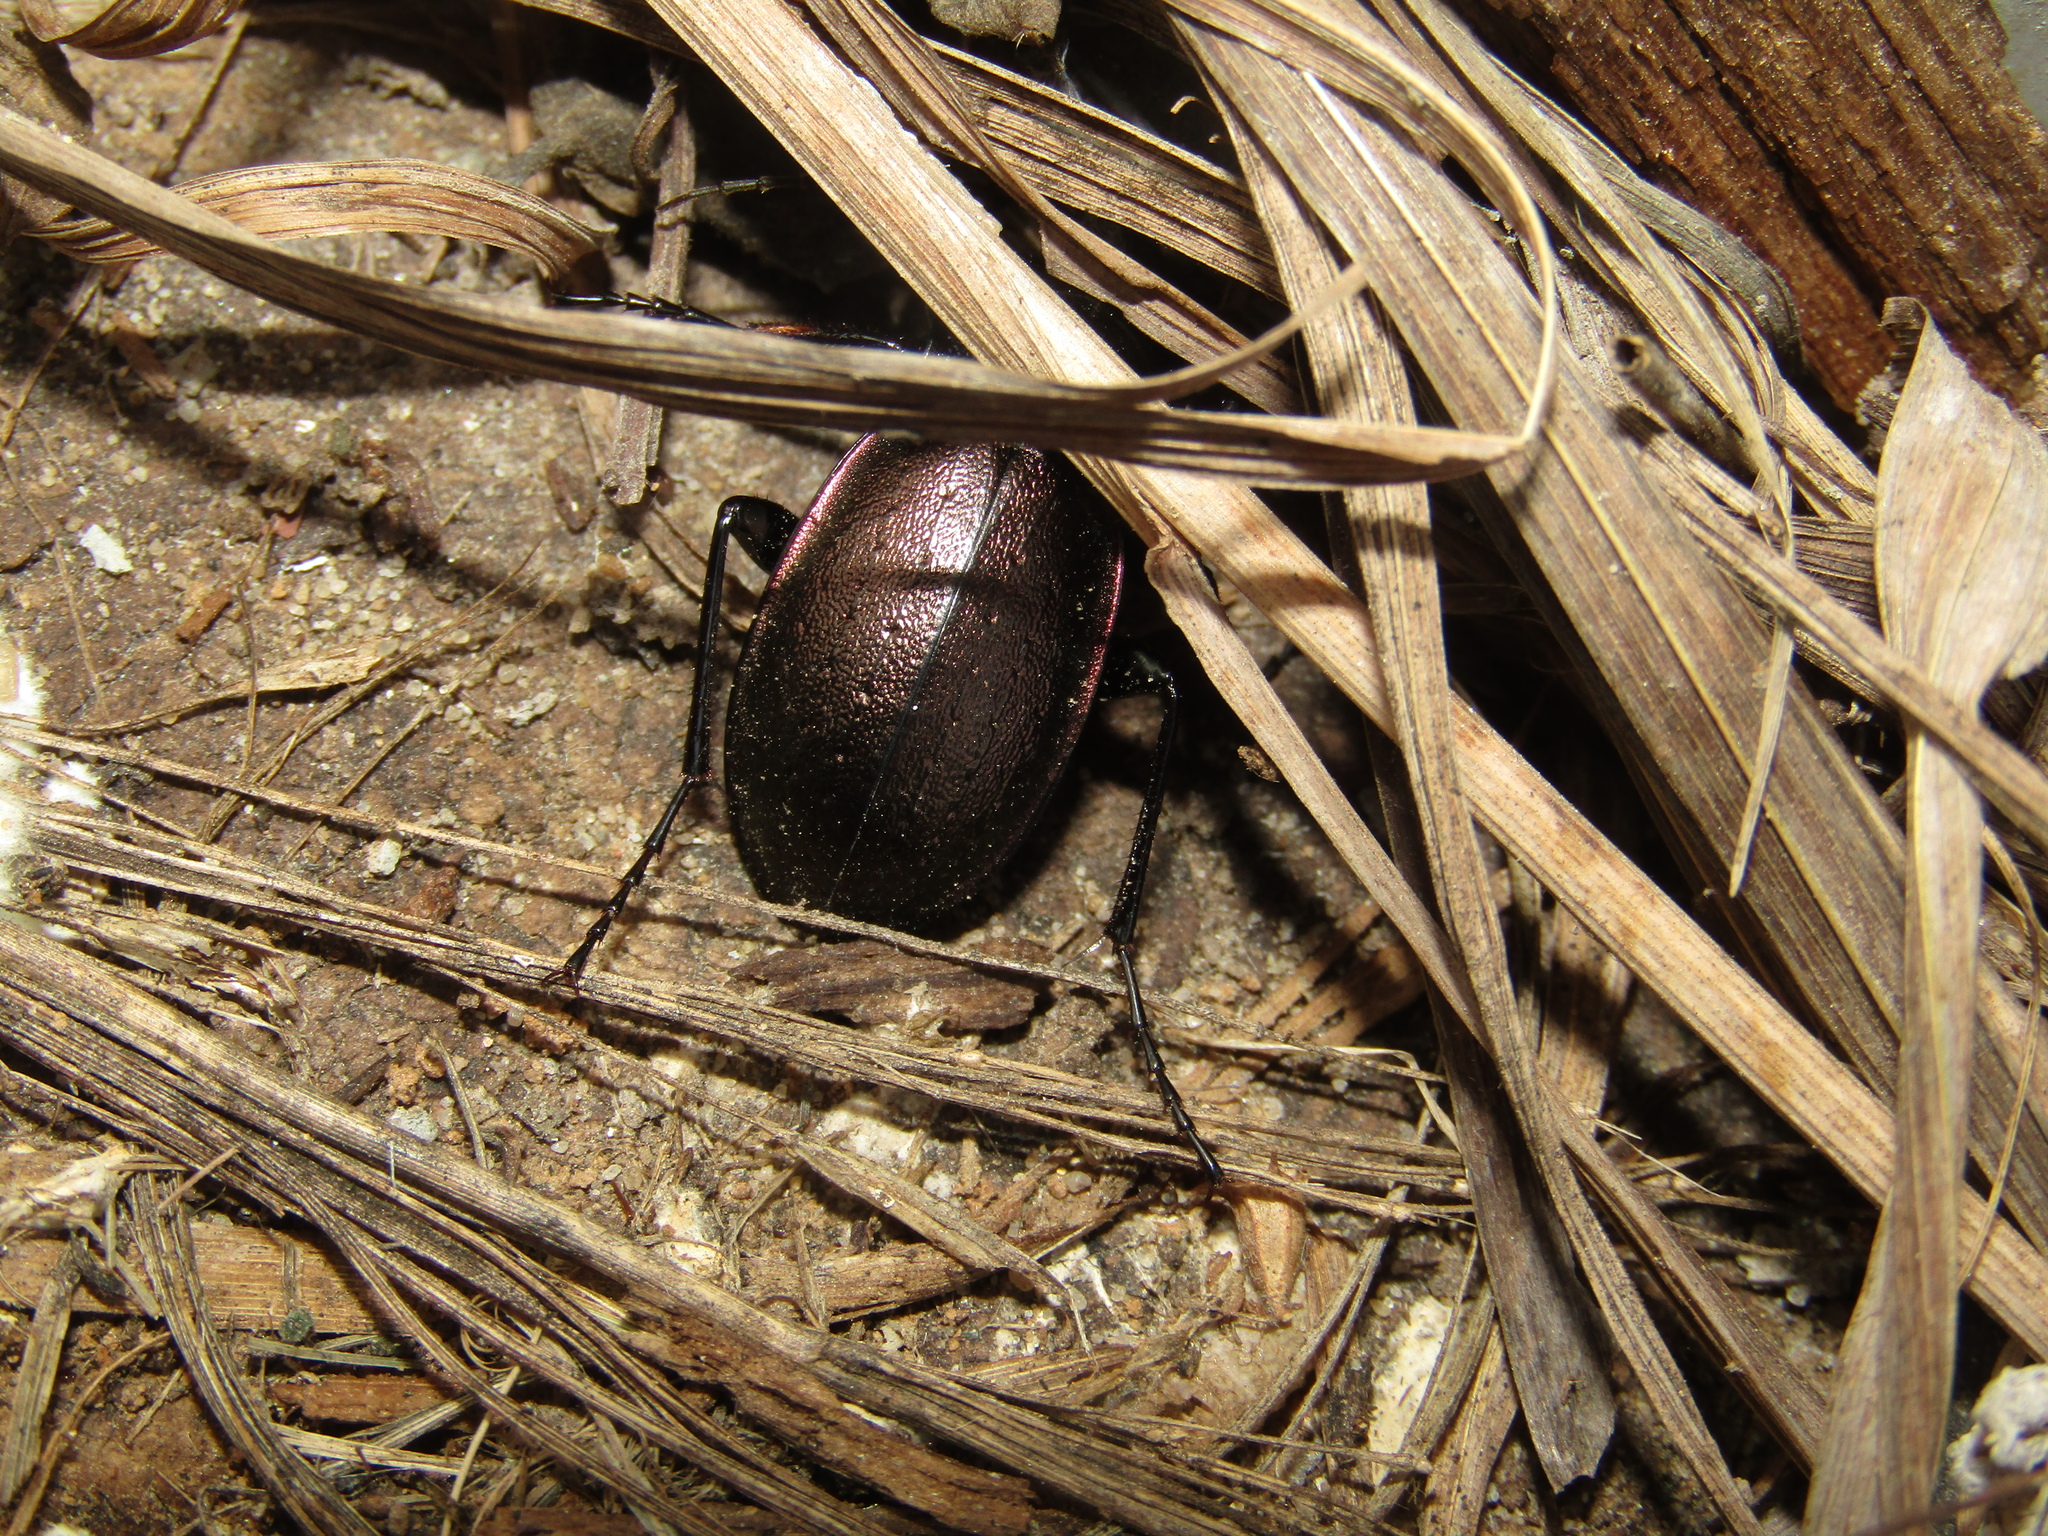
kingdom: Animalia
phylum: Arthropoda
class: Insecta
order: Coleoptera
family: Carabidae
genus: Carabus
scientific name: Carabus nemoralis
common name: European ground beetle
